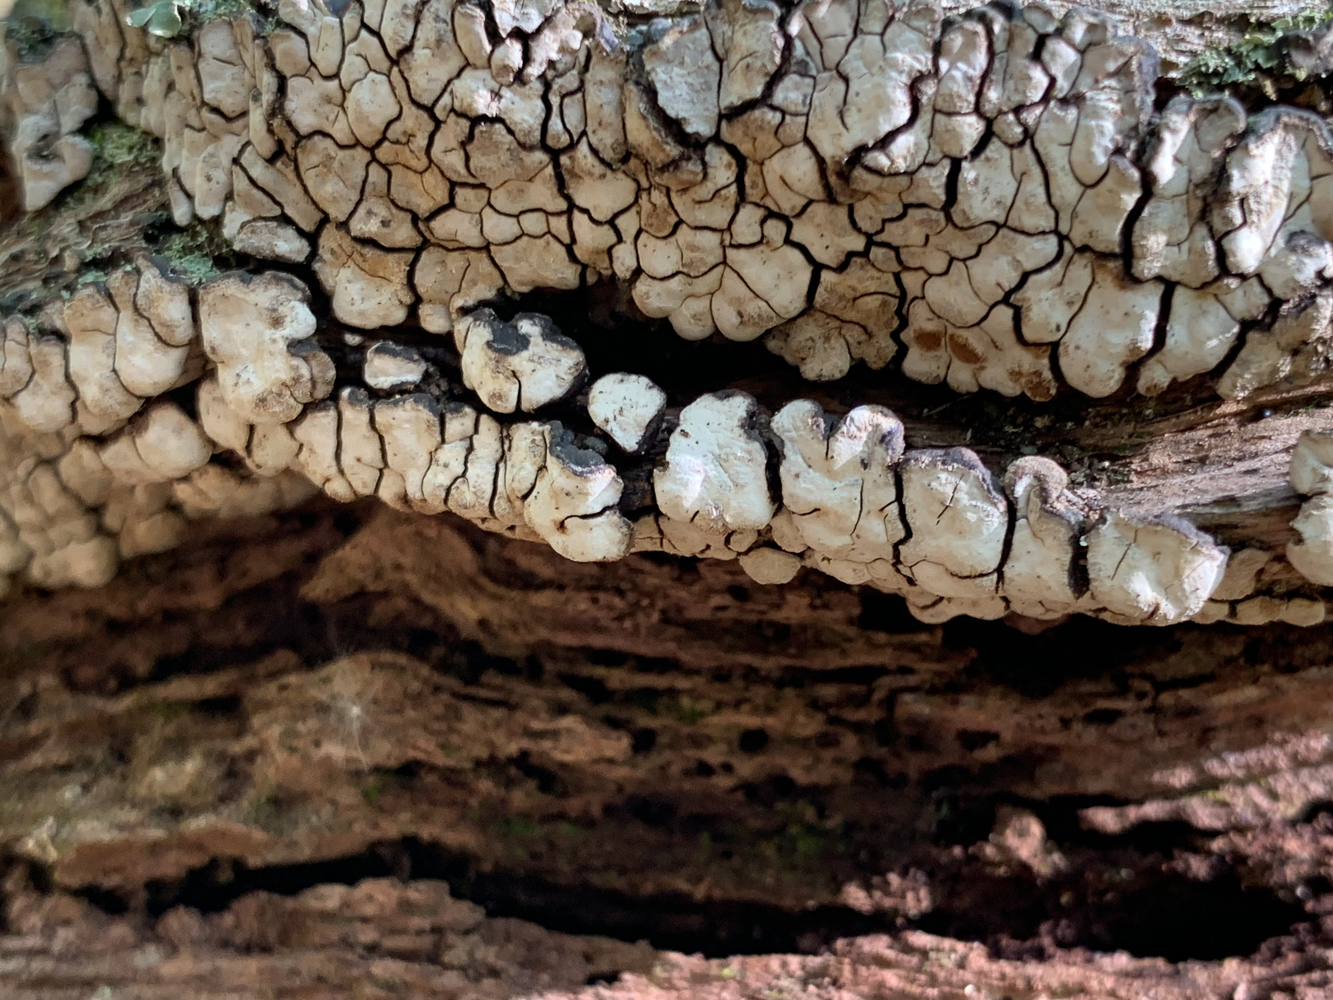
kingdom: Fungi
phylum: Basidiomycota
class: Agaricomycetes
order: Russulales
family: Stereaceae
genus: Xylobolus
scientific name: Xylobolus frustulatus
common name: Ceramic parchment
